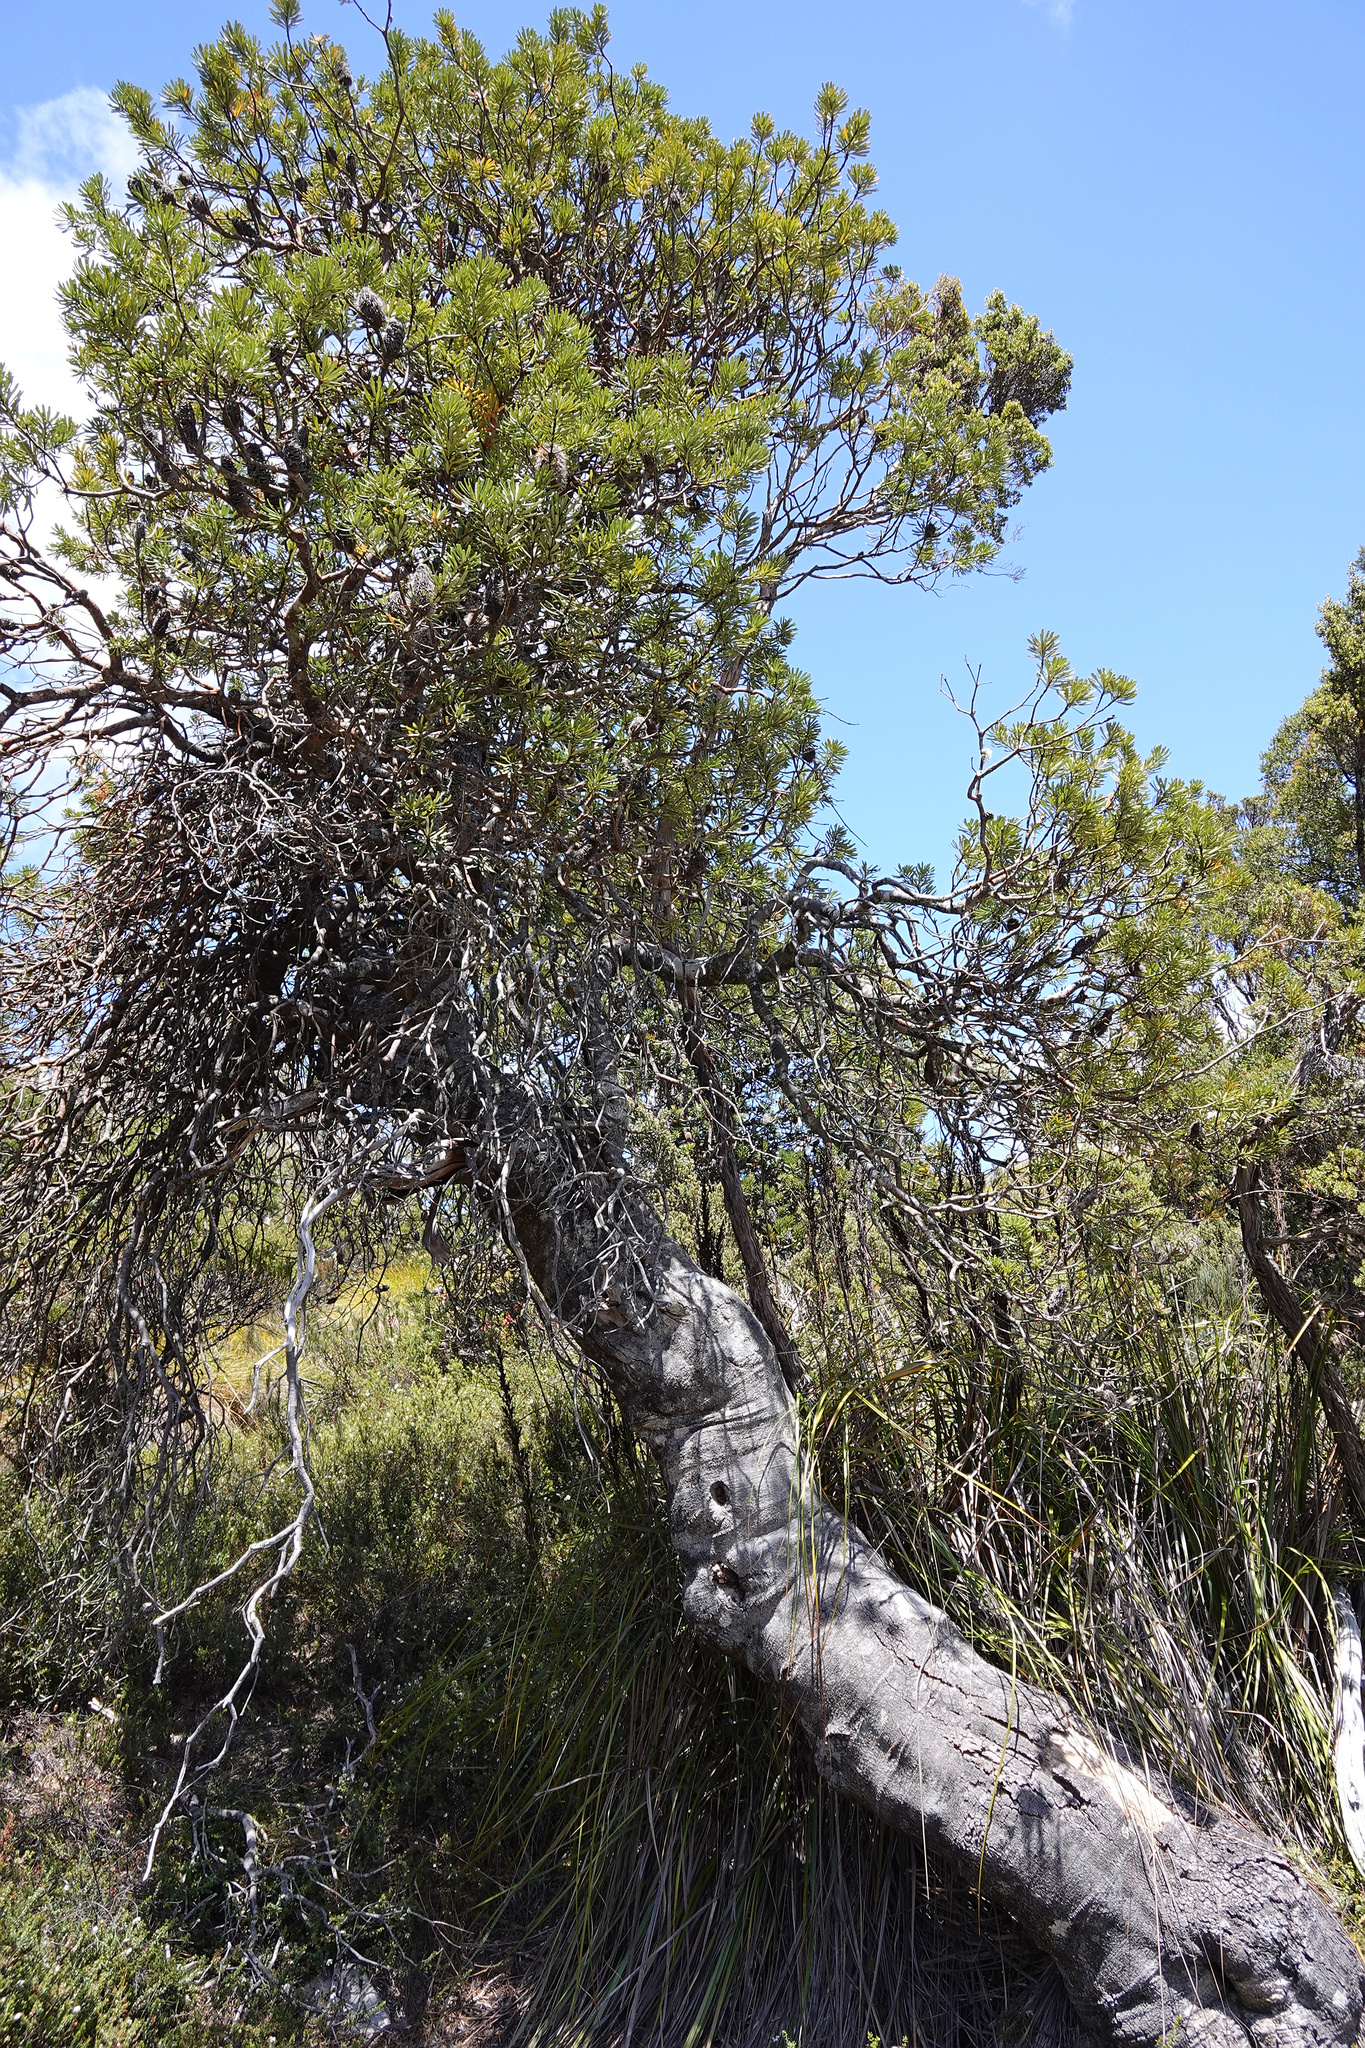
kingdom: Plantae
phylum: Tracheophyta
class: Magnoliopsida
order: Proteales
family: Proteaceae
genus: Banksia
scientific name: Banksia marginata
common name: Silver banksia
